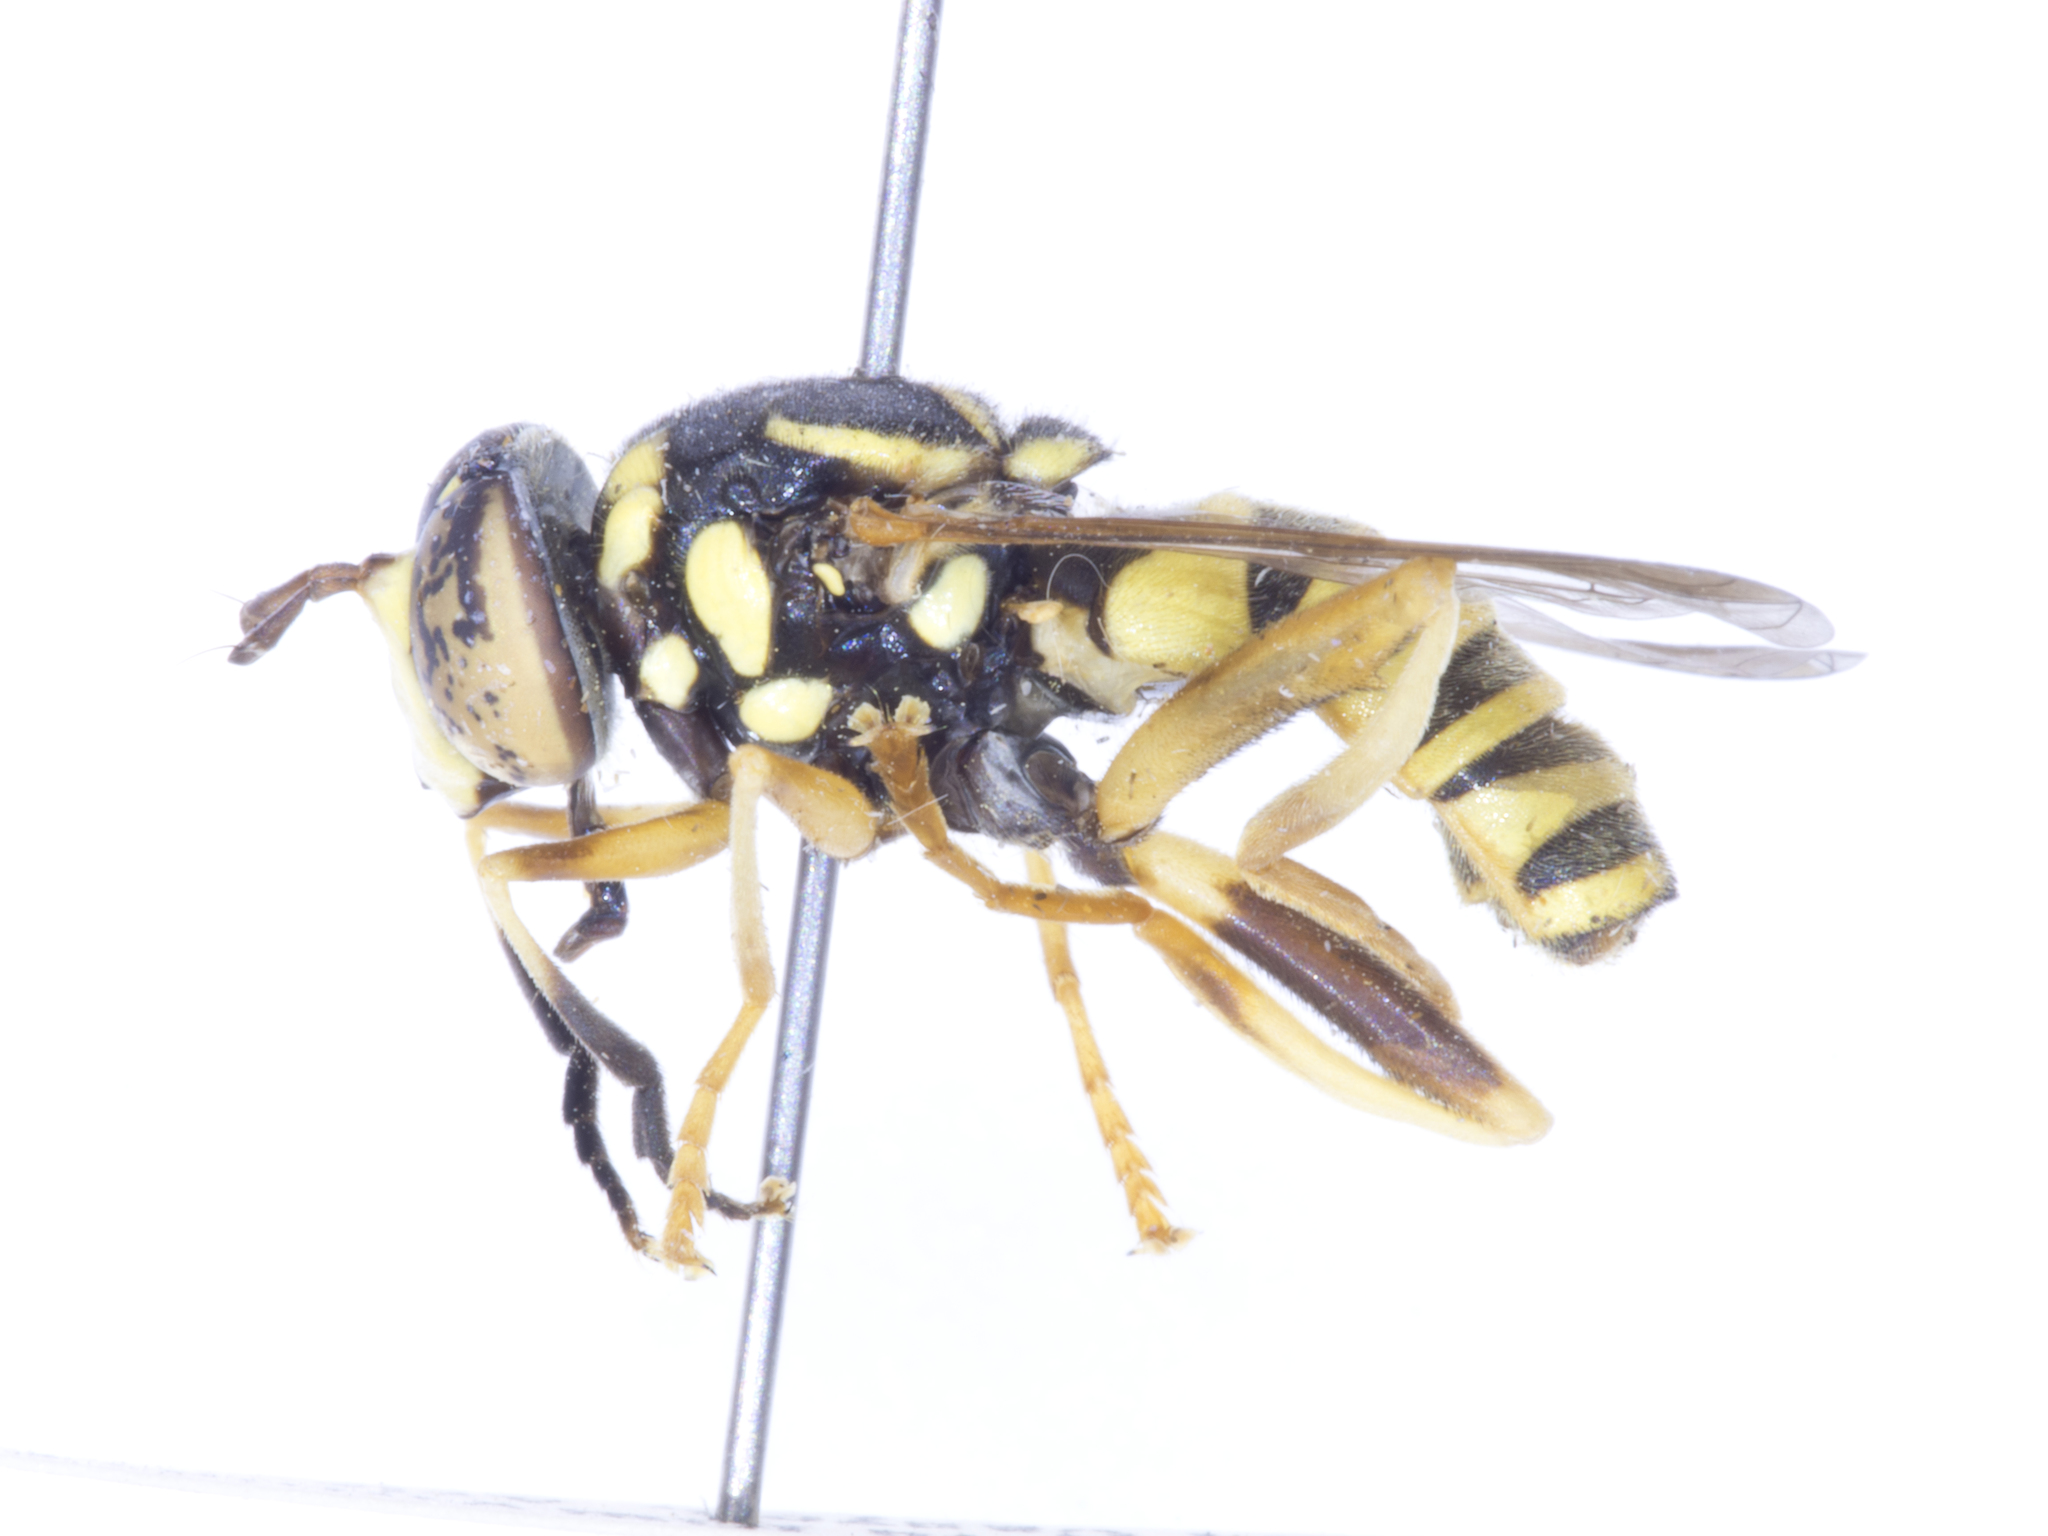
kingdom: Animalia
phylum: Arthropoda
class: Insecta
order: Diptera
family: Syrphidae
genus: Spilomyia
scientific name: Spilomyia liturata
